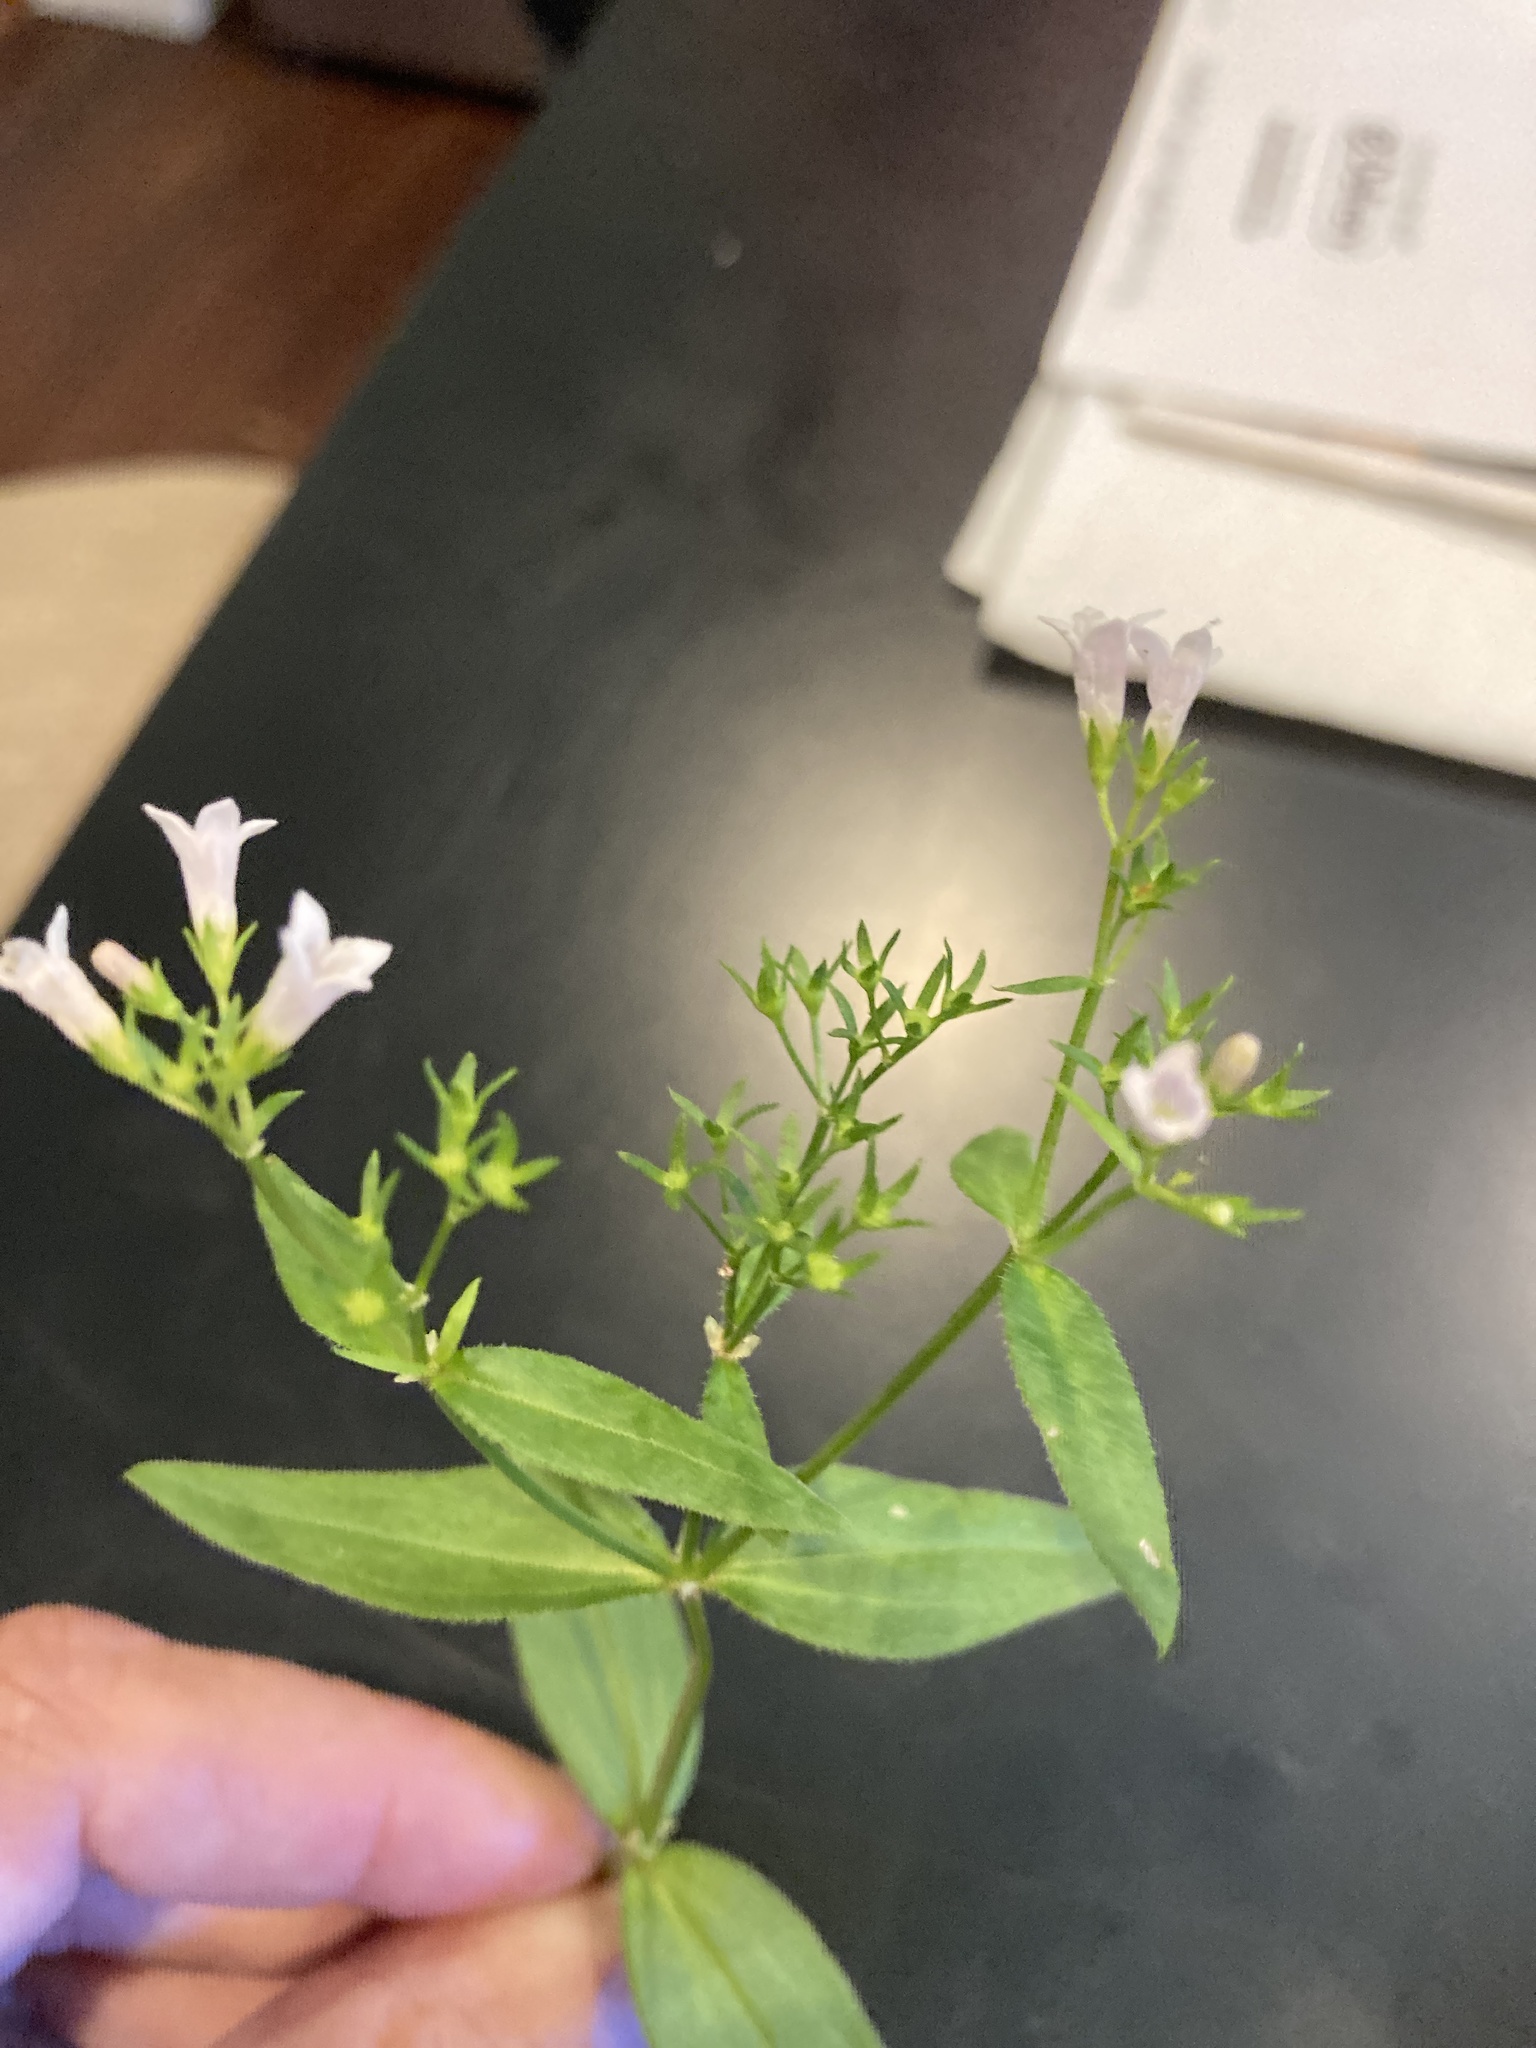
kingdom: Plantae
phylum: Tracheophyta
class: Magnoliopsida
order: Gentianales
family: Rubiaceae
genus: Houstonia
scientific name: Houstonia purpurea
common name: Summer bluet
